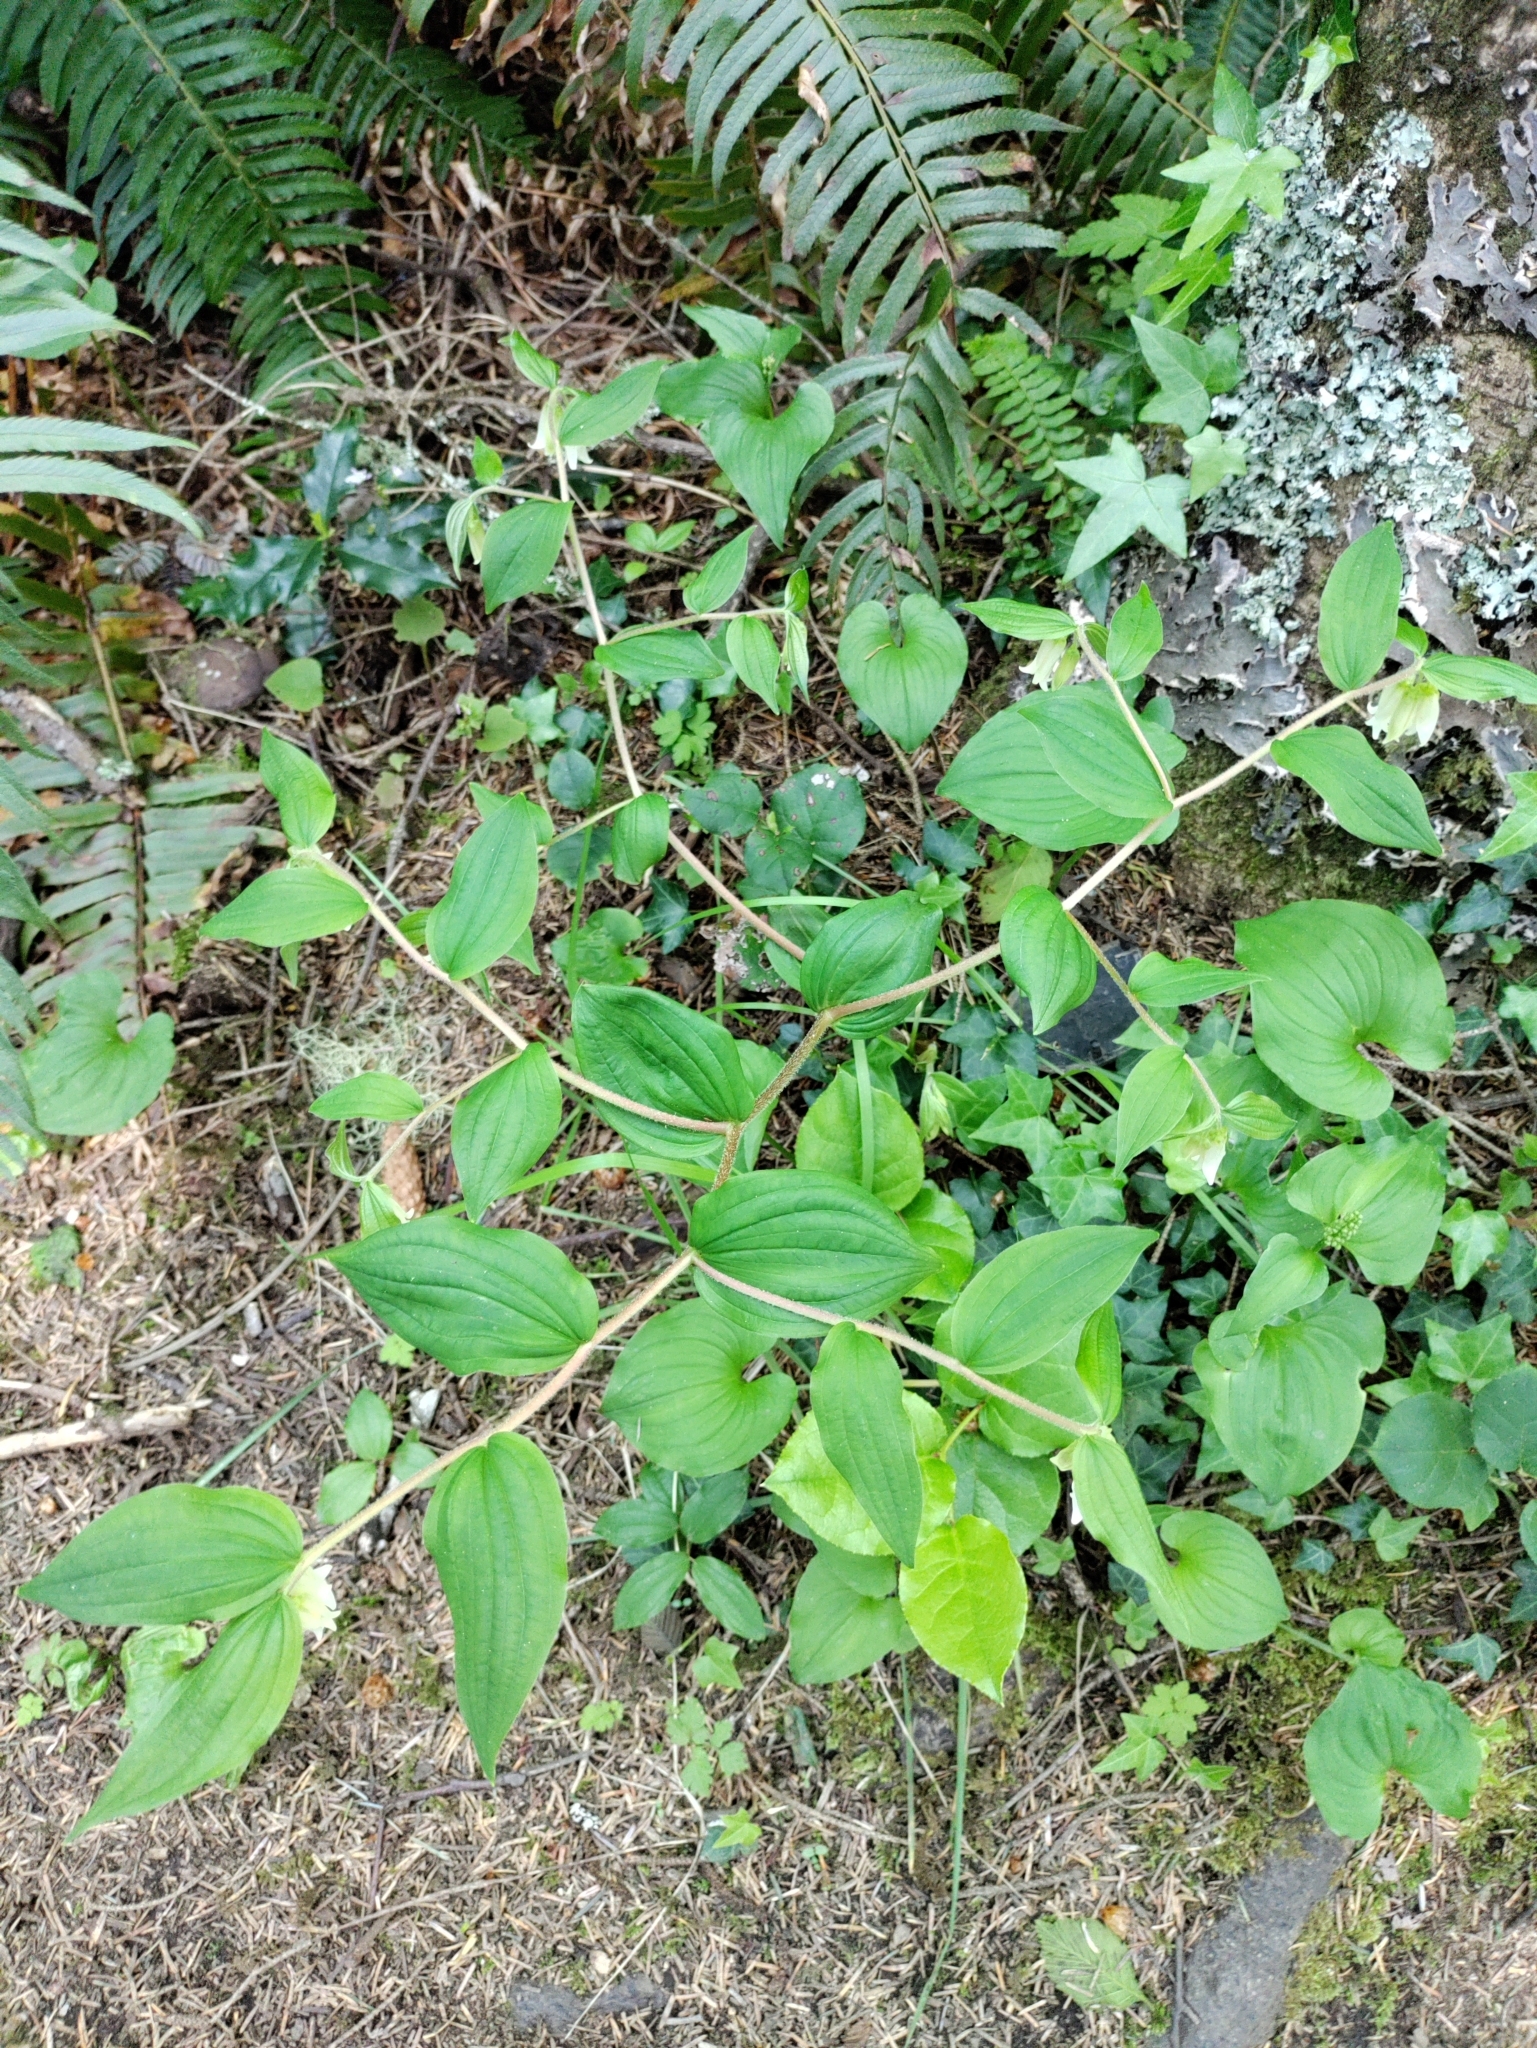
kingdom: Plantae
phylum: Tracheophyta
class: Liliopsida
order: Liliales
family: Liliaceae
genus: Prosartes
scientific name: Prosartes smithii
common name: Fairy-lantern
